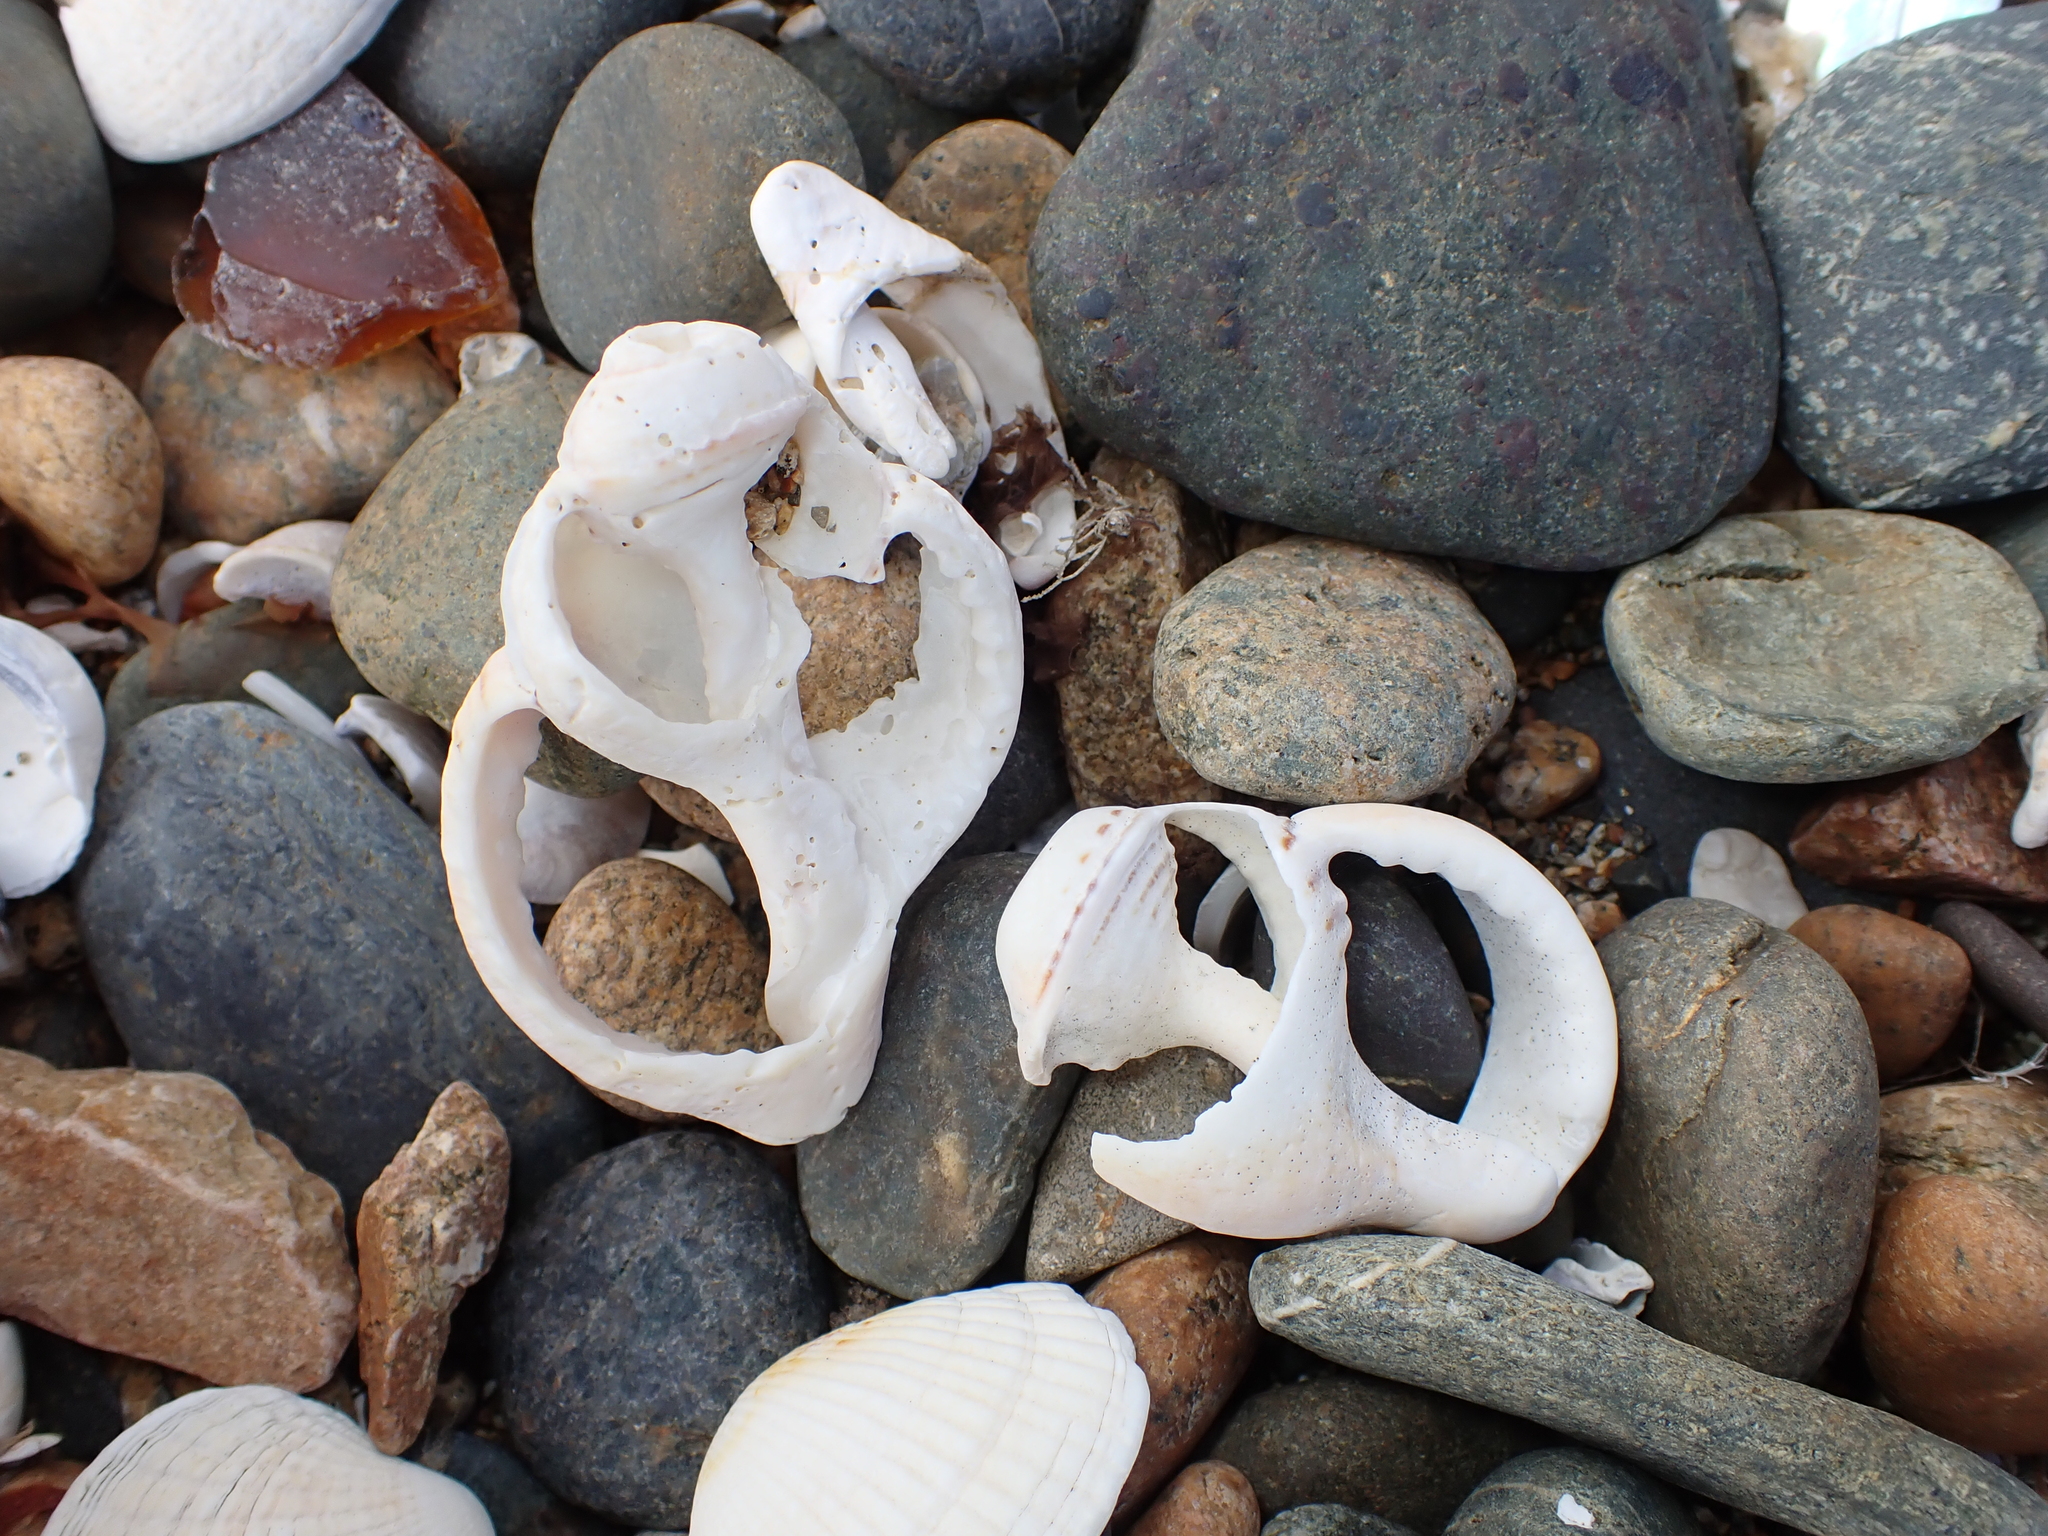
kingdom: Animalia
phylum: Mollusca
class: Gastropoda
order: Littorinimorpha
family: Cymatiidae
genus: Argobuccinum
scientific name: Argobuccinum pustulosum
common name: Pustular triton
